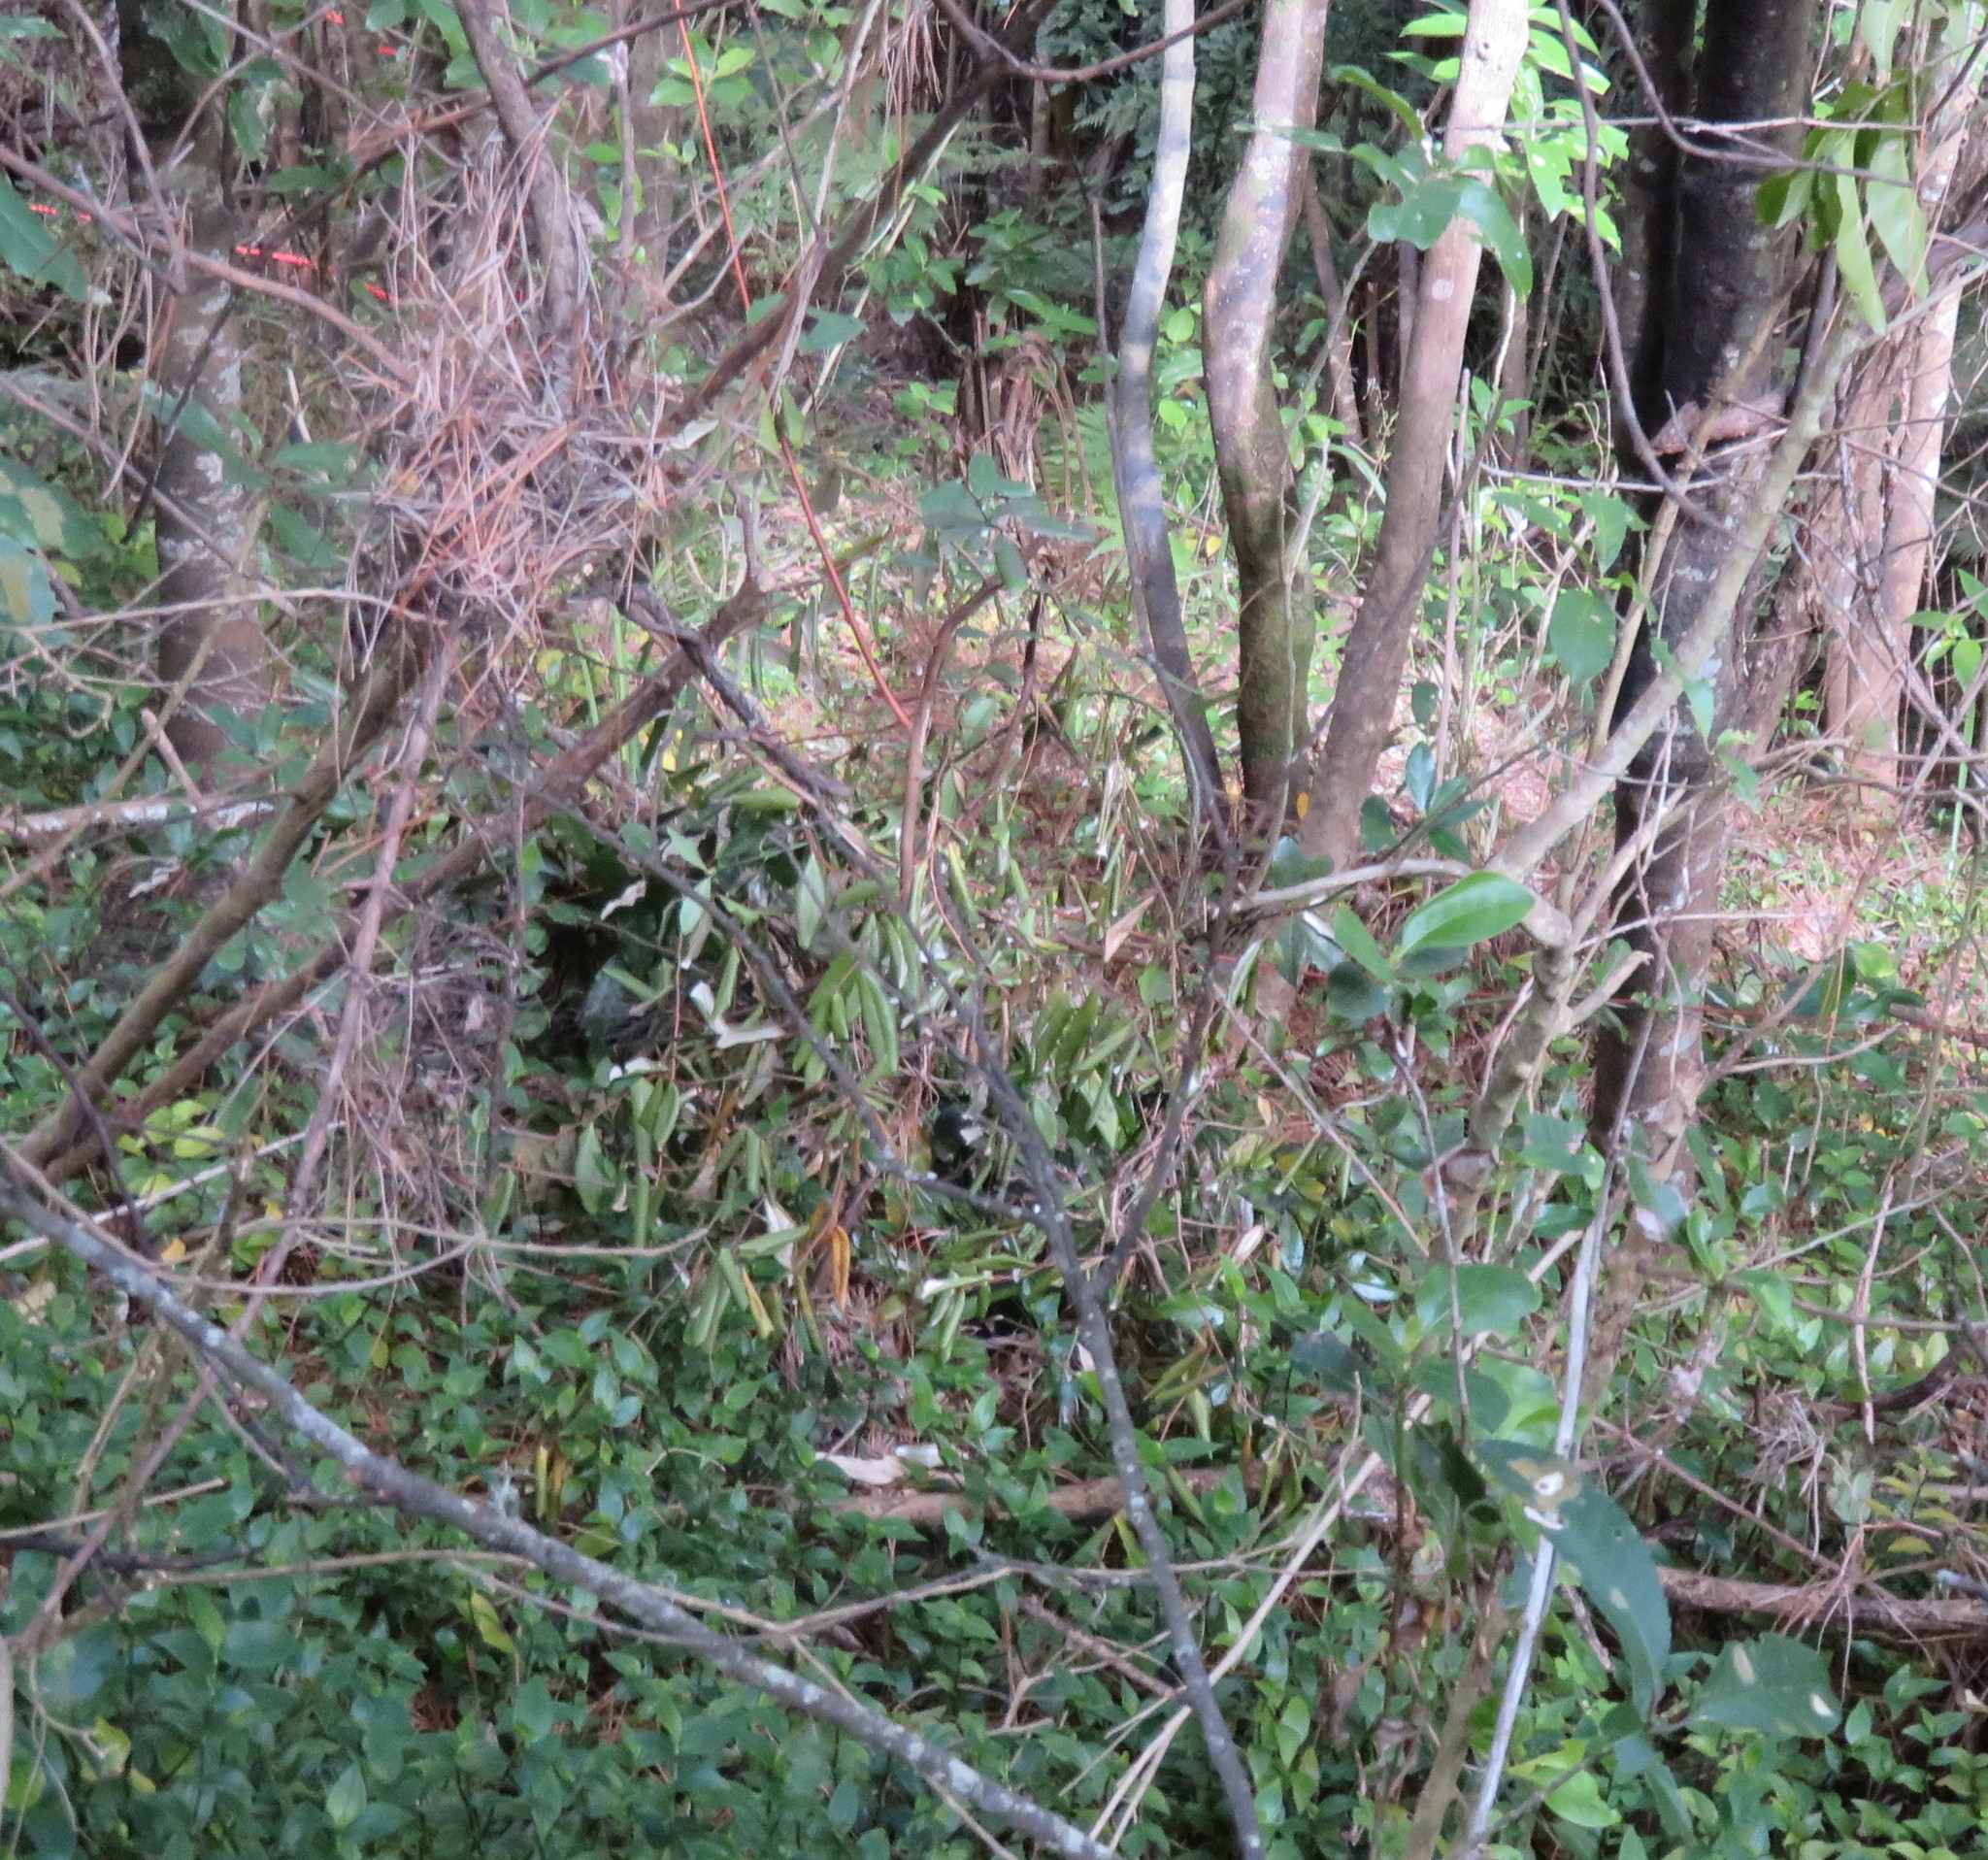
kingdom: Plantae
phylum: Tracheophyta
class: Magnoliopsida
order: Rosales
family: Elaeagnaceae
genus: Elaeagnus
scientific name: Elaeagnus reflexa
